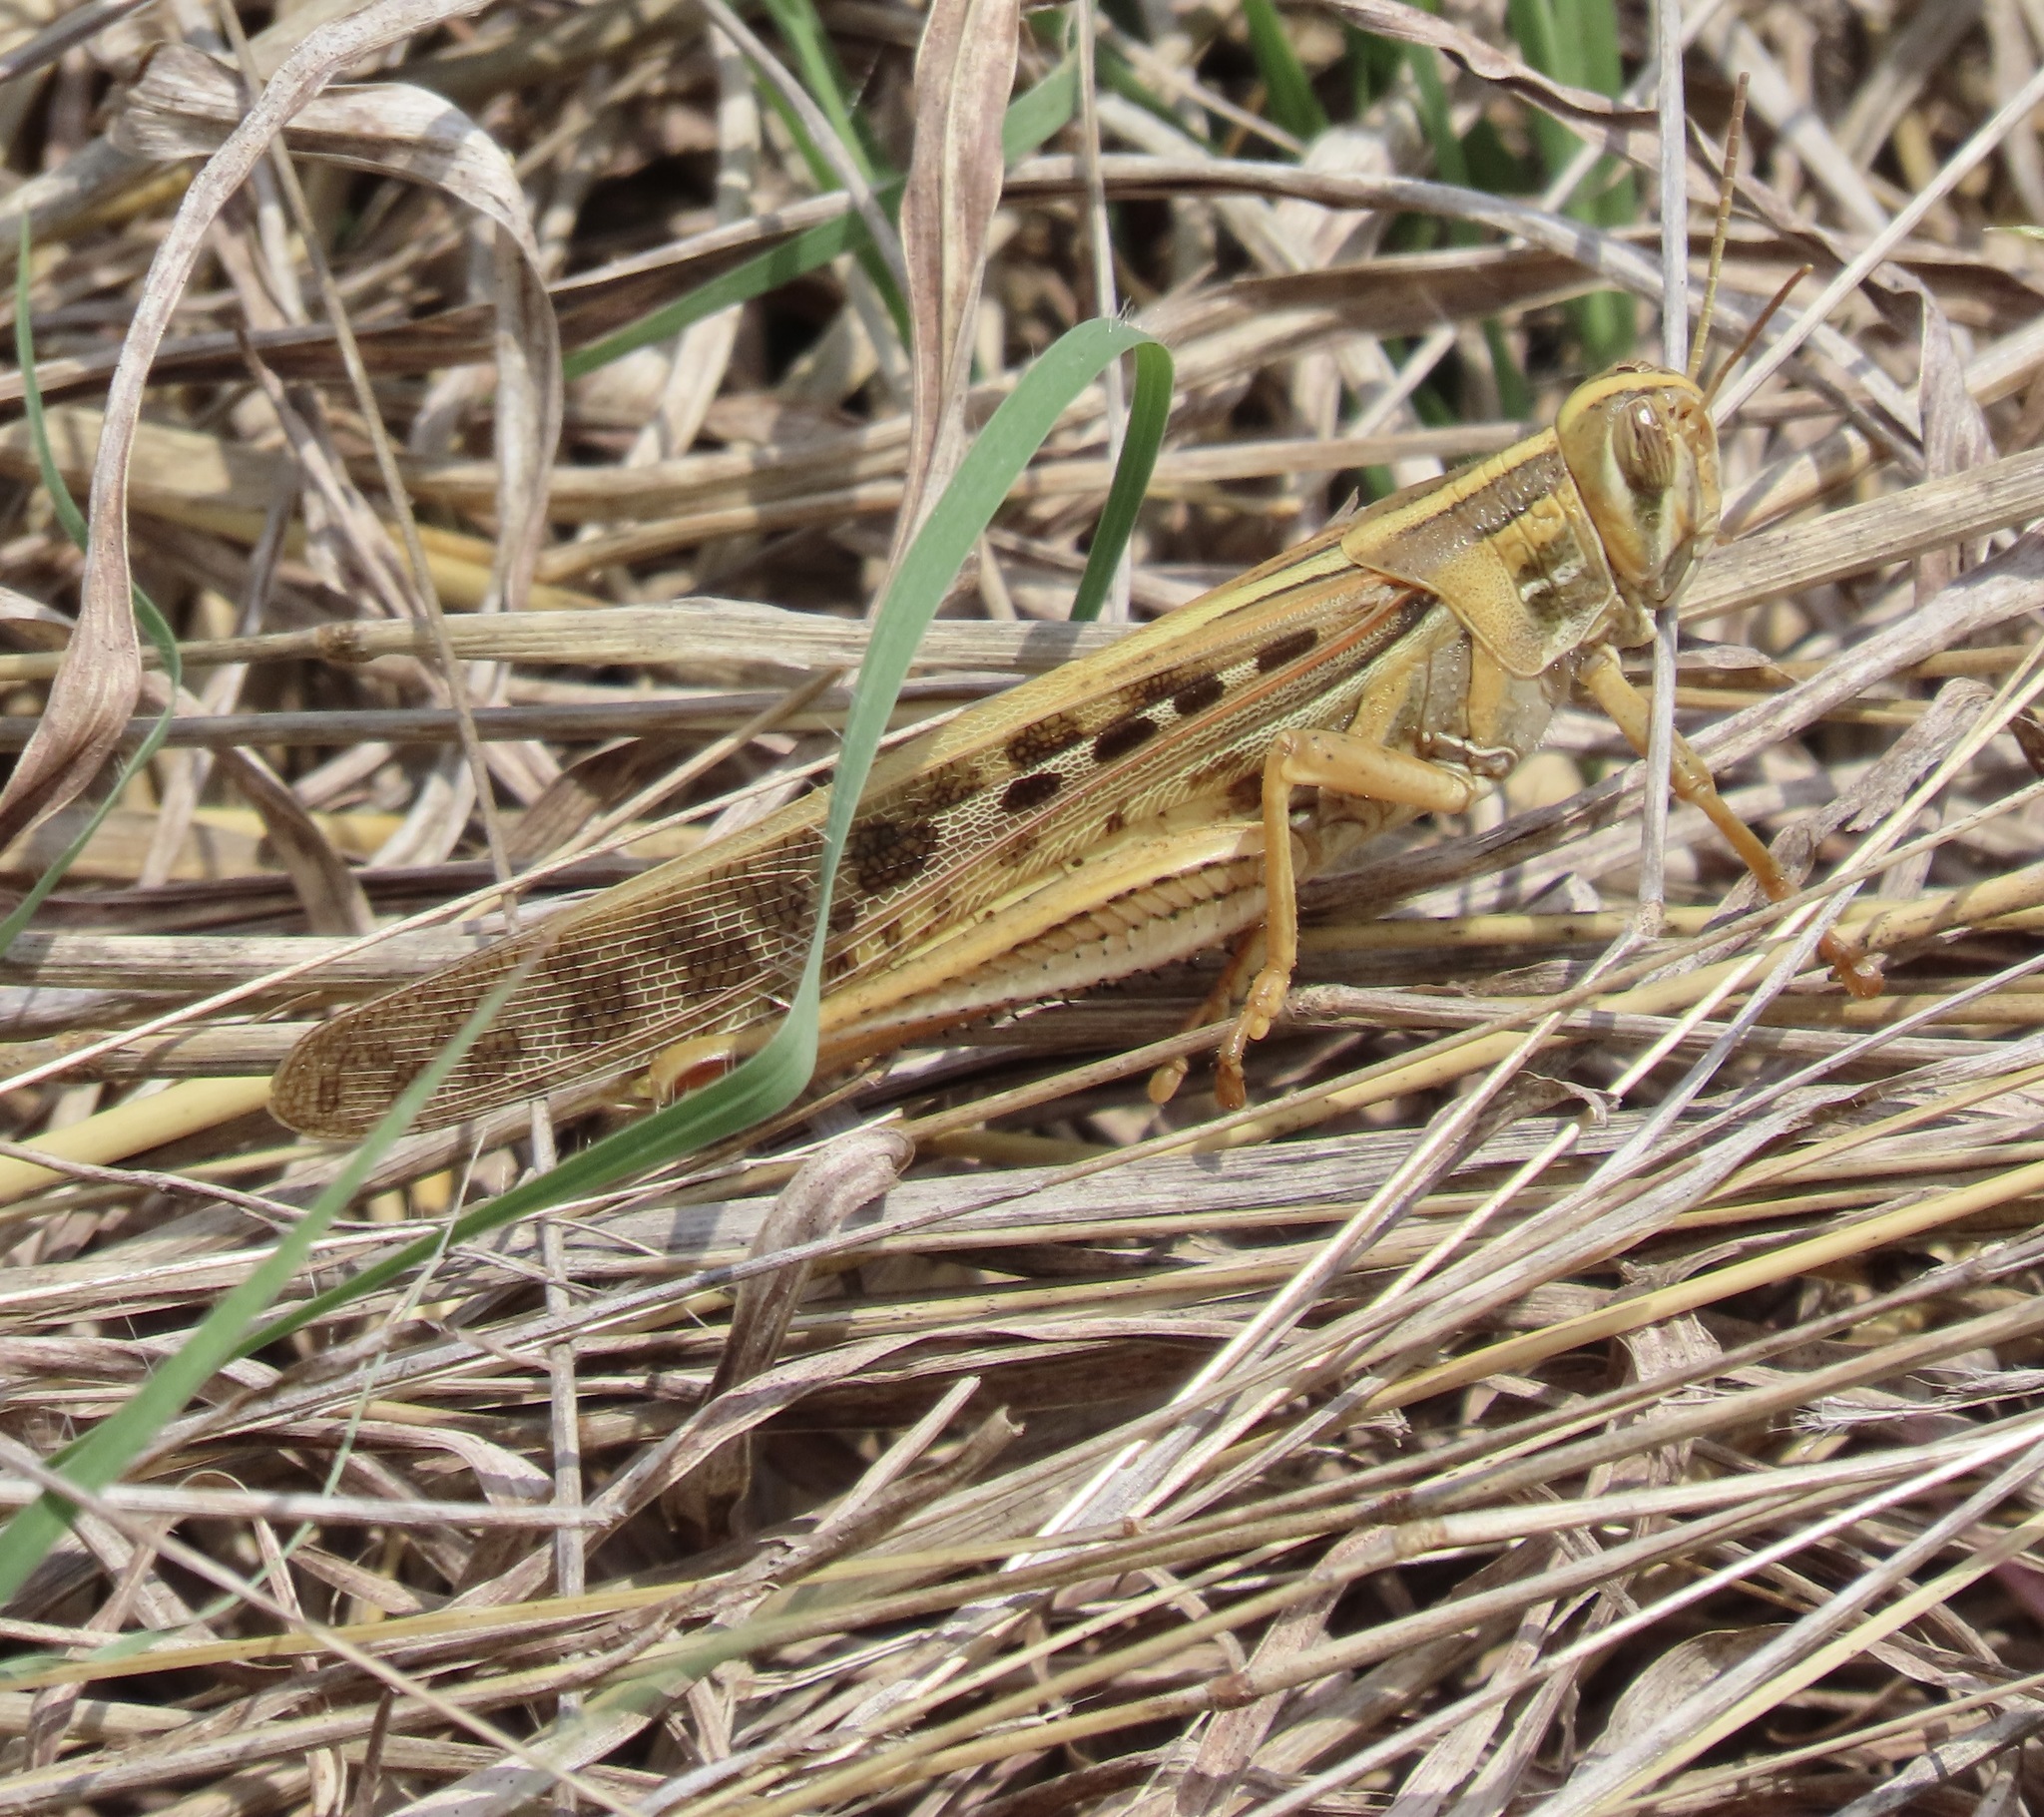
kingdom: Animalia
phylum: Arthropoda
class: Insecta
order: Orthoptera
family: Acrididae
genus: Schistocerca
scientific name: Schistocerca americana
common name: American bird locust
